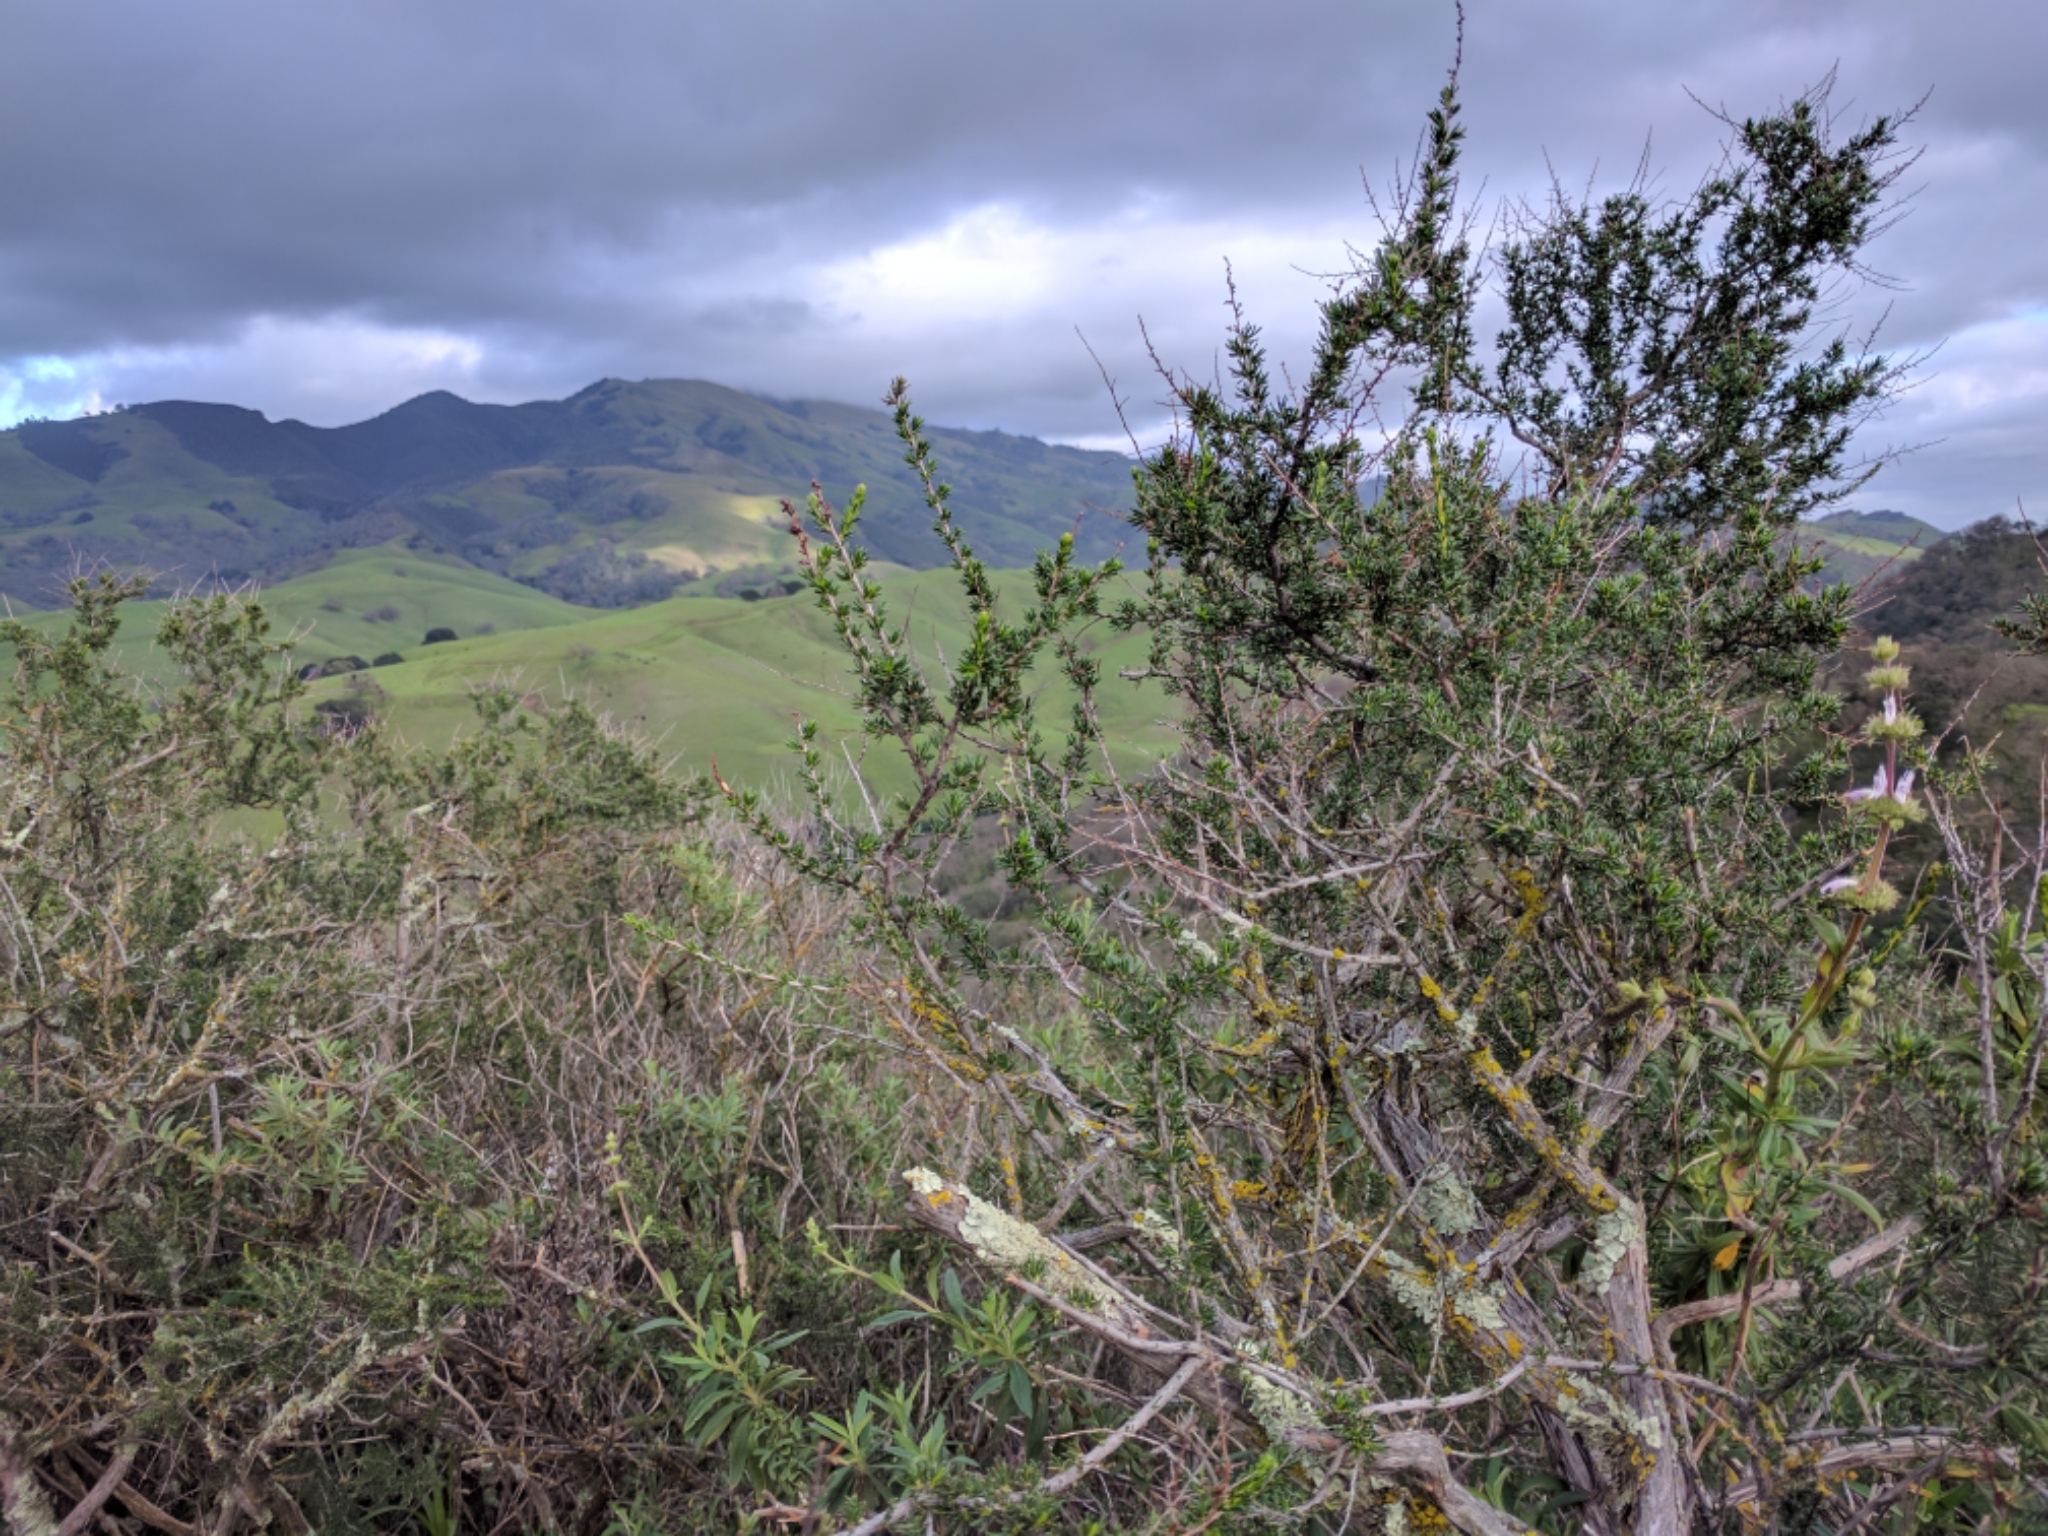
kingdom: Plantae
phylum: Tracheophyta
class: Magnoliopsida
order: Rosales
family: Rosaceae
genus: Adenostoma
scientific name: Adenostoma fasciculatum
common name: Chamise
